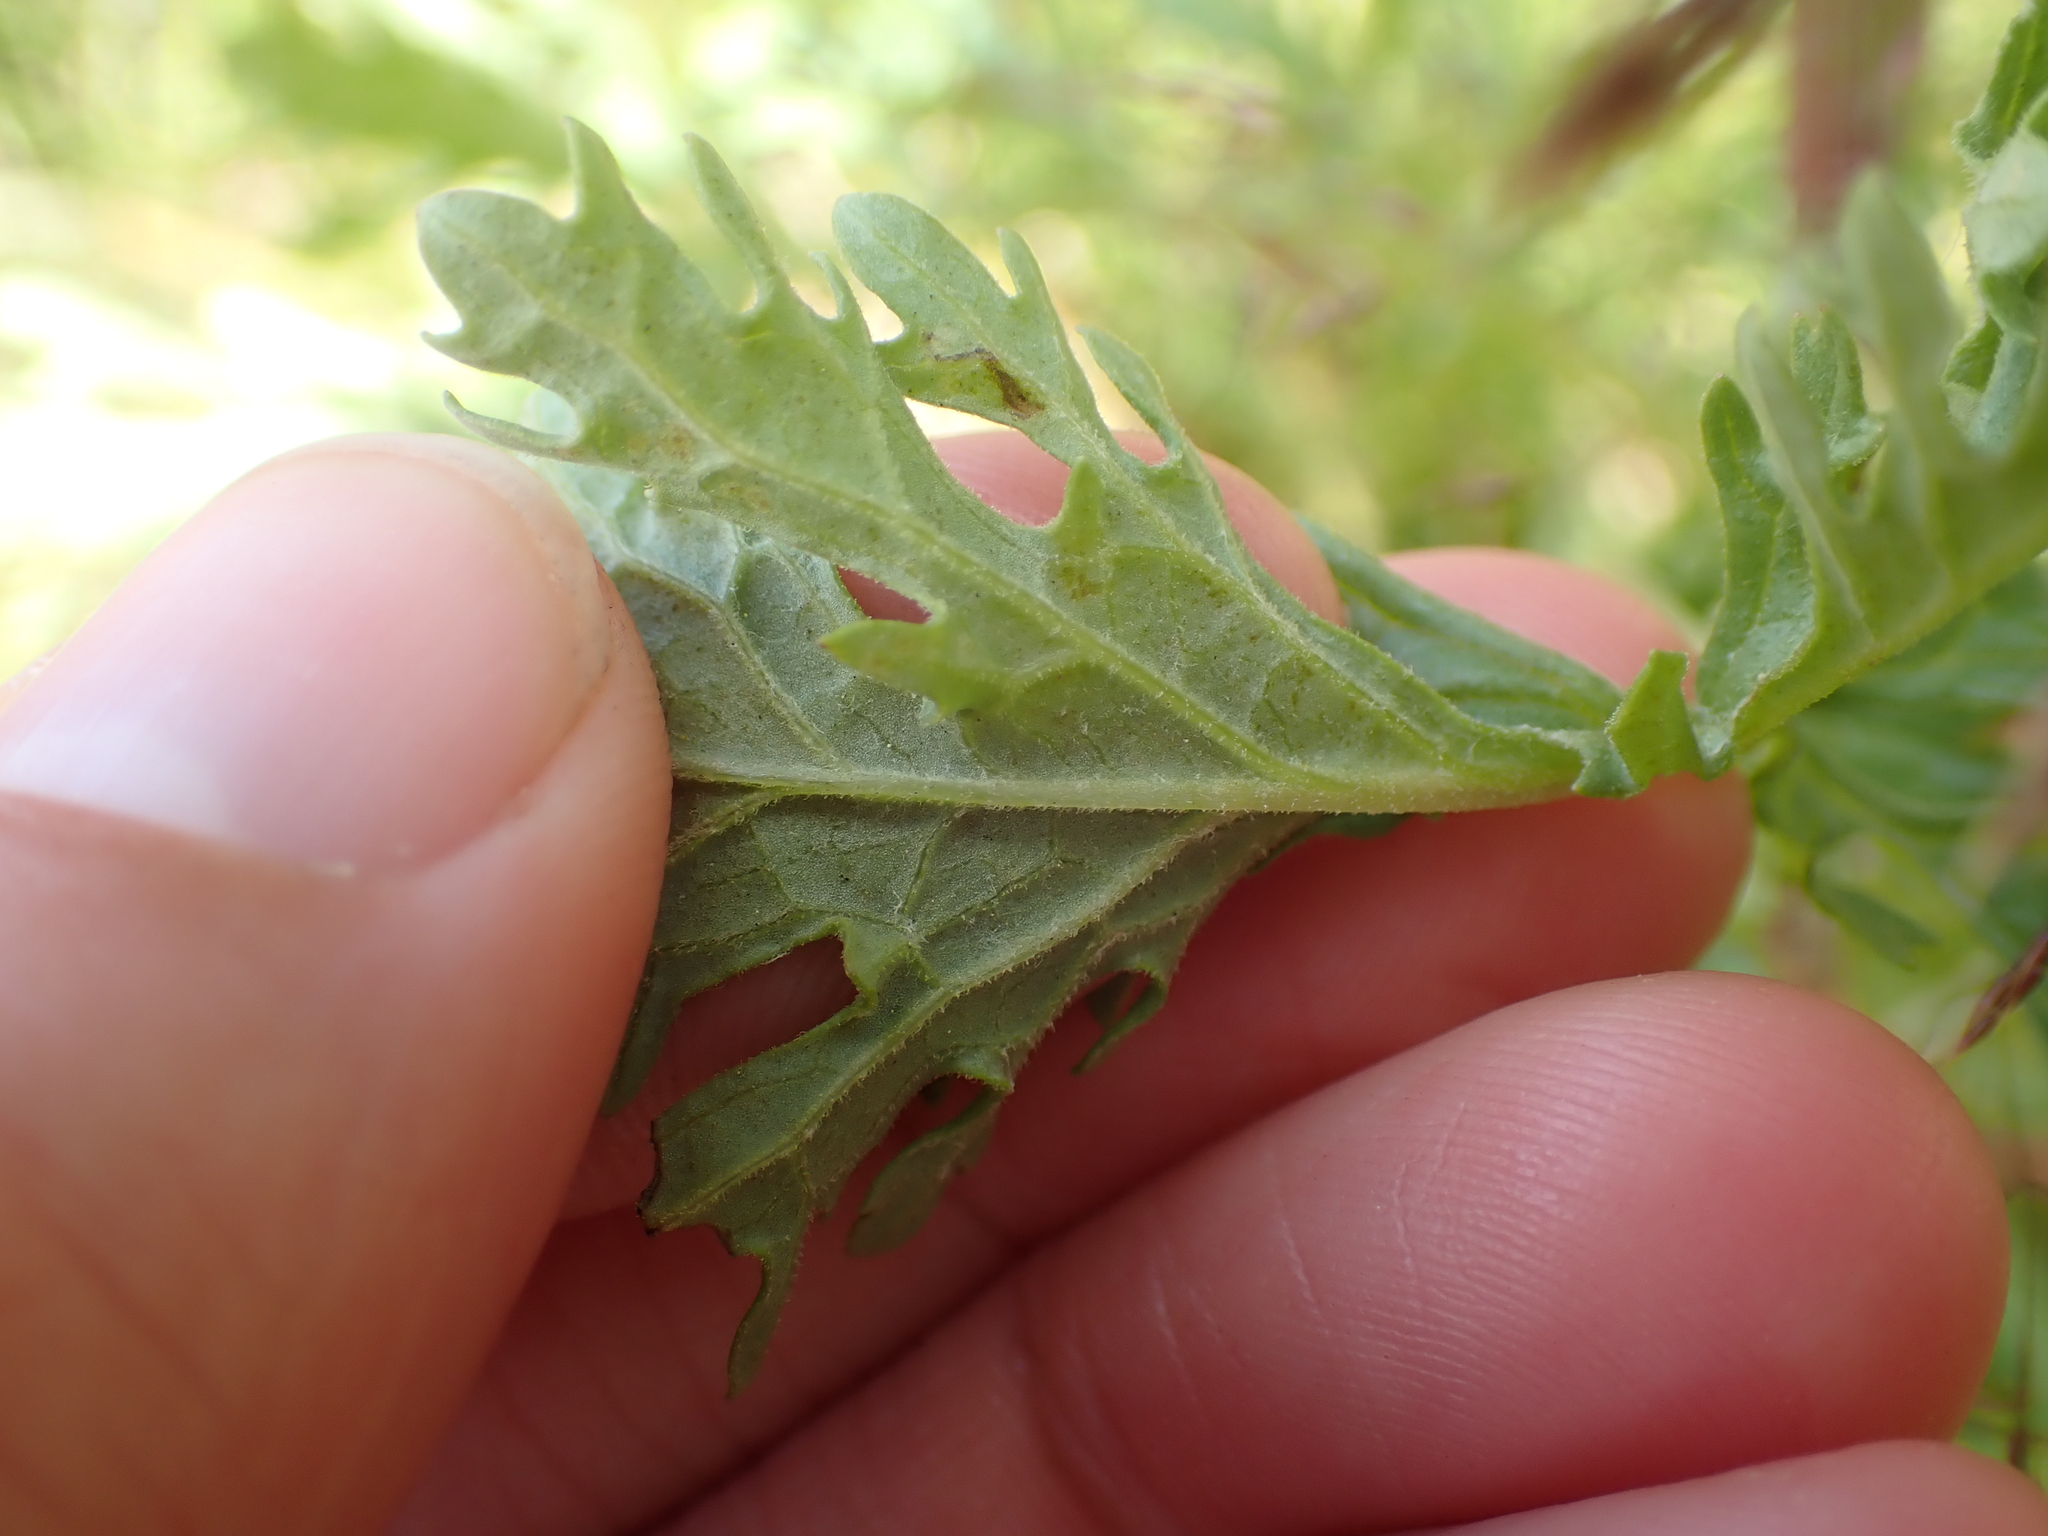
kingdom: Plantae
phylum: Tracheophyta
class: Magnoliopsida
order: Asterales
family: Asteraceae
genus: Jacobaea
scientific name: Jacobaea vulgaris
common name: Stinking willie
